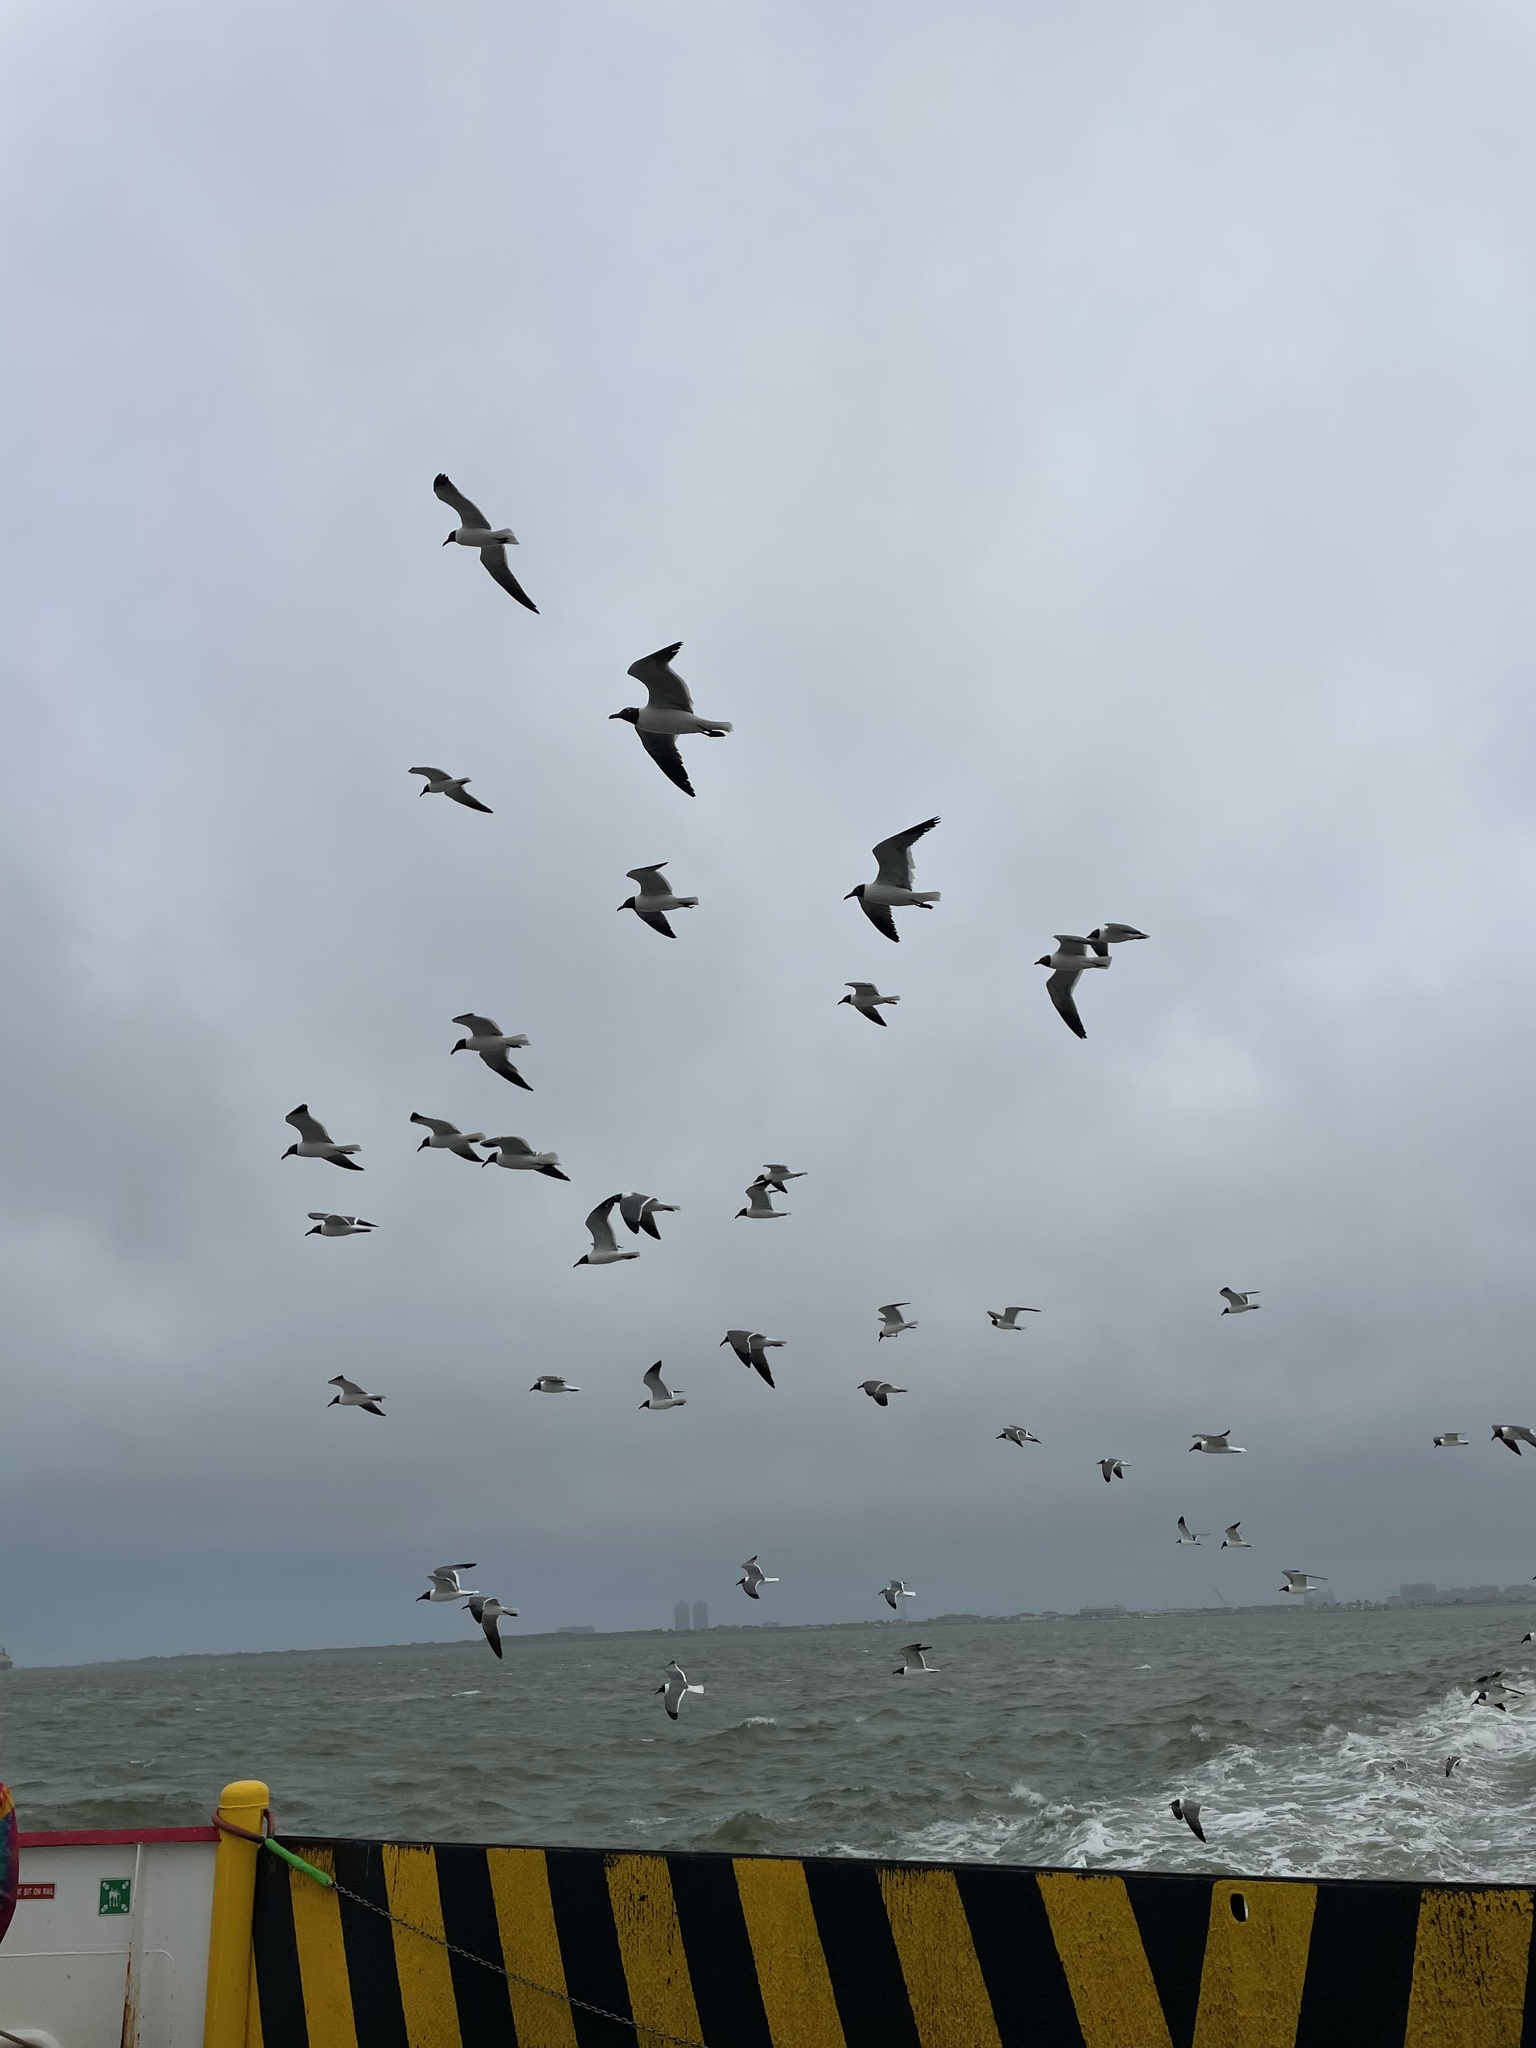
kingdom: Animalia
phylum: Chordata
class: Aves
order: Charadriiformes
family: Laridae
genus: Leucophaeus
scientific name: Leucophaeus atricilla
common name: Laughing gull
